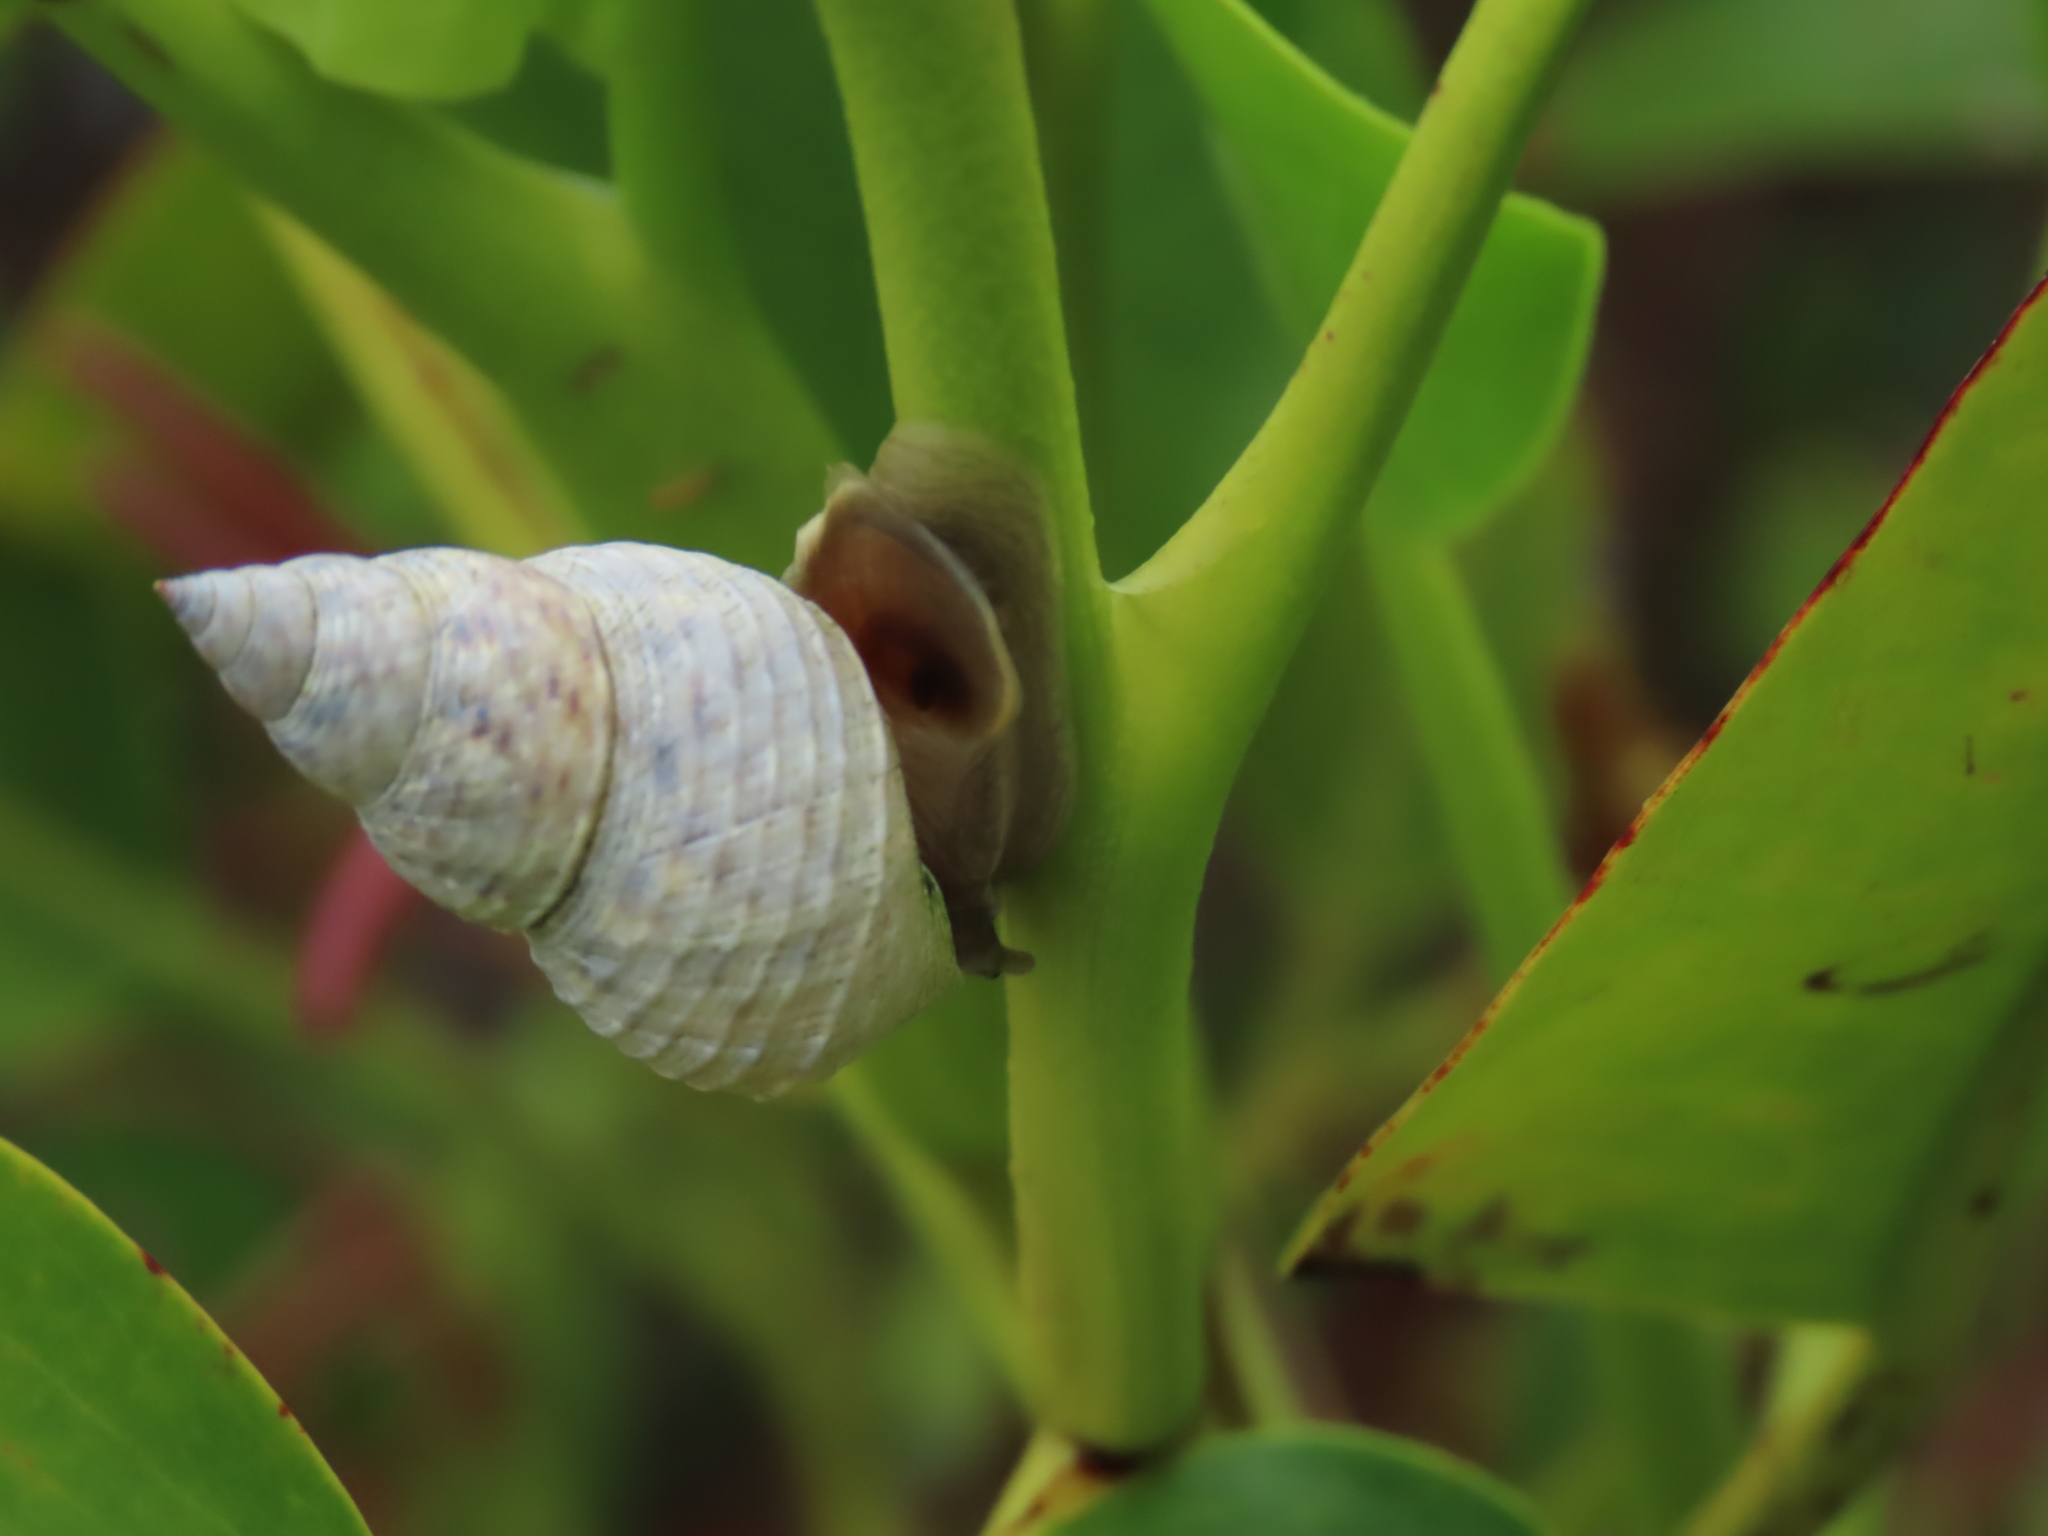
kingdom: Animalia
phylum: Mollusca
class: Gastropoda
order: Littorinimorpha
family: Littorinidae
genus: Littoraria
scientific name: Littoraria scabra
